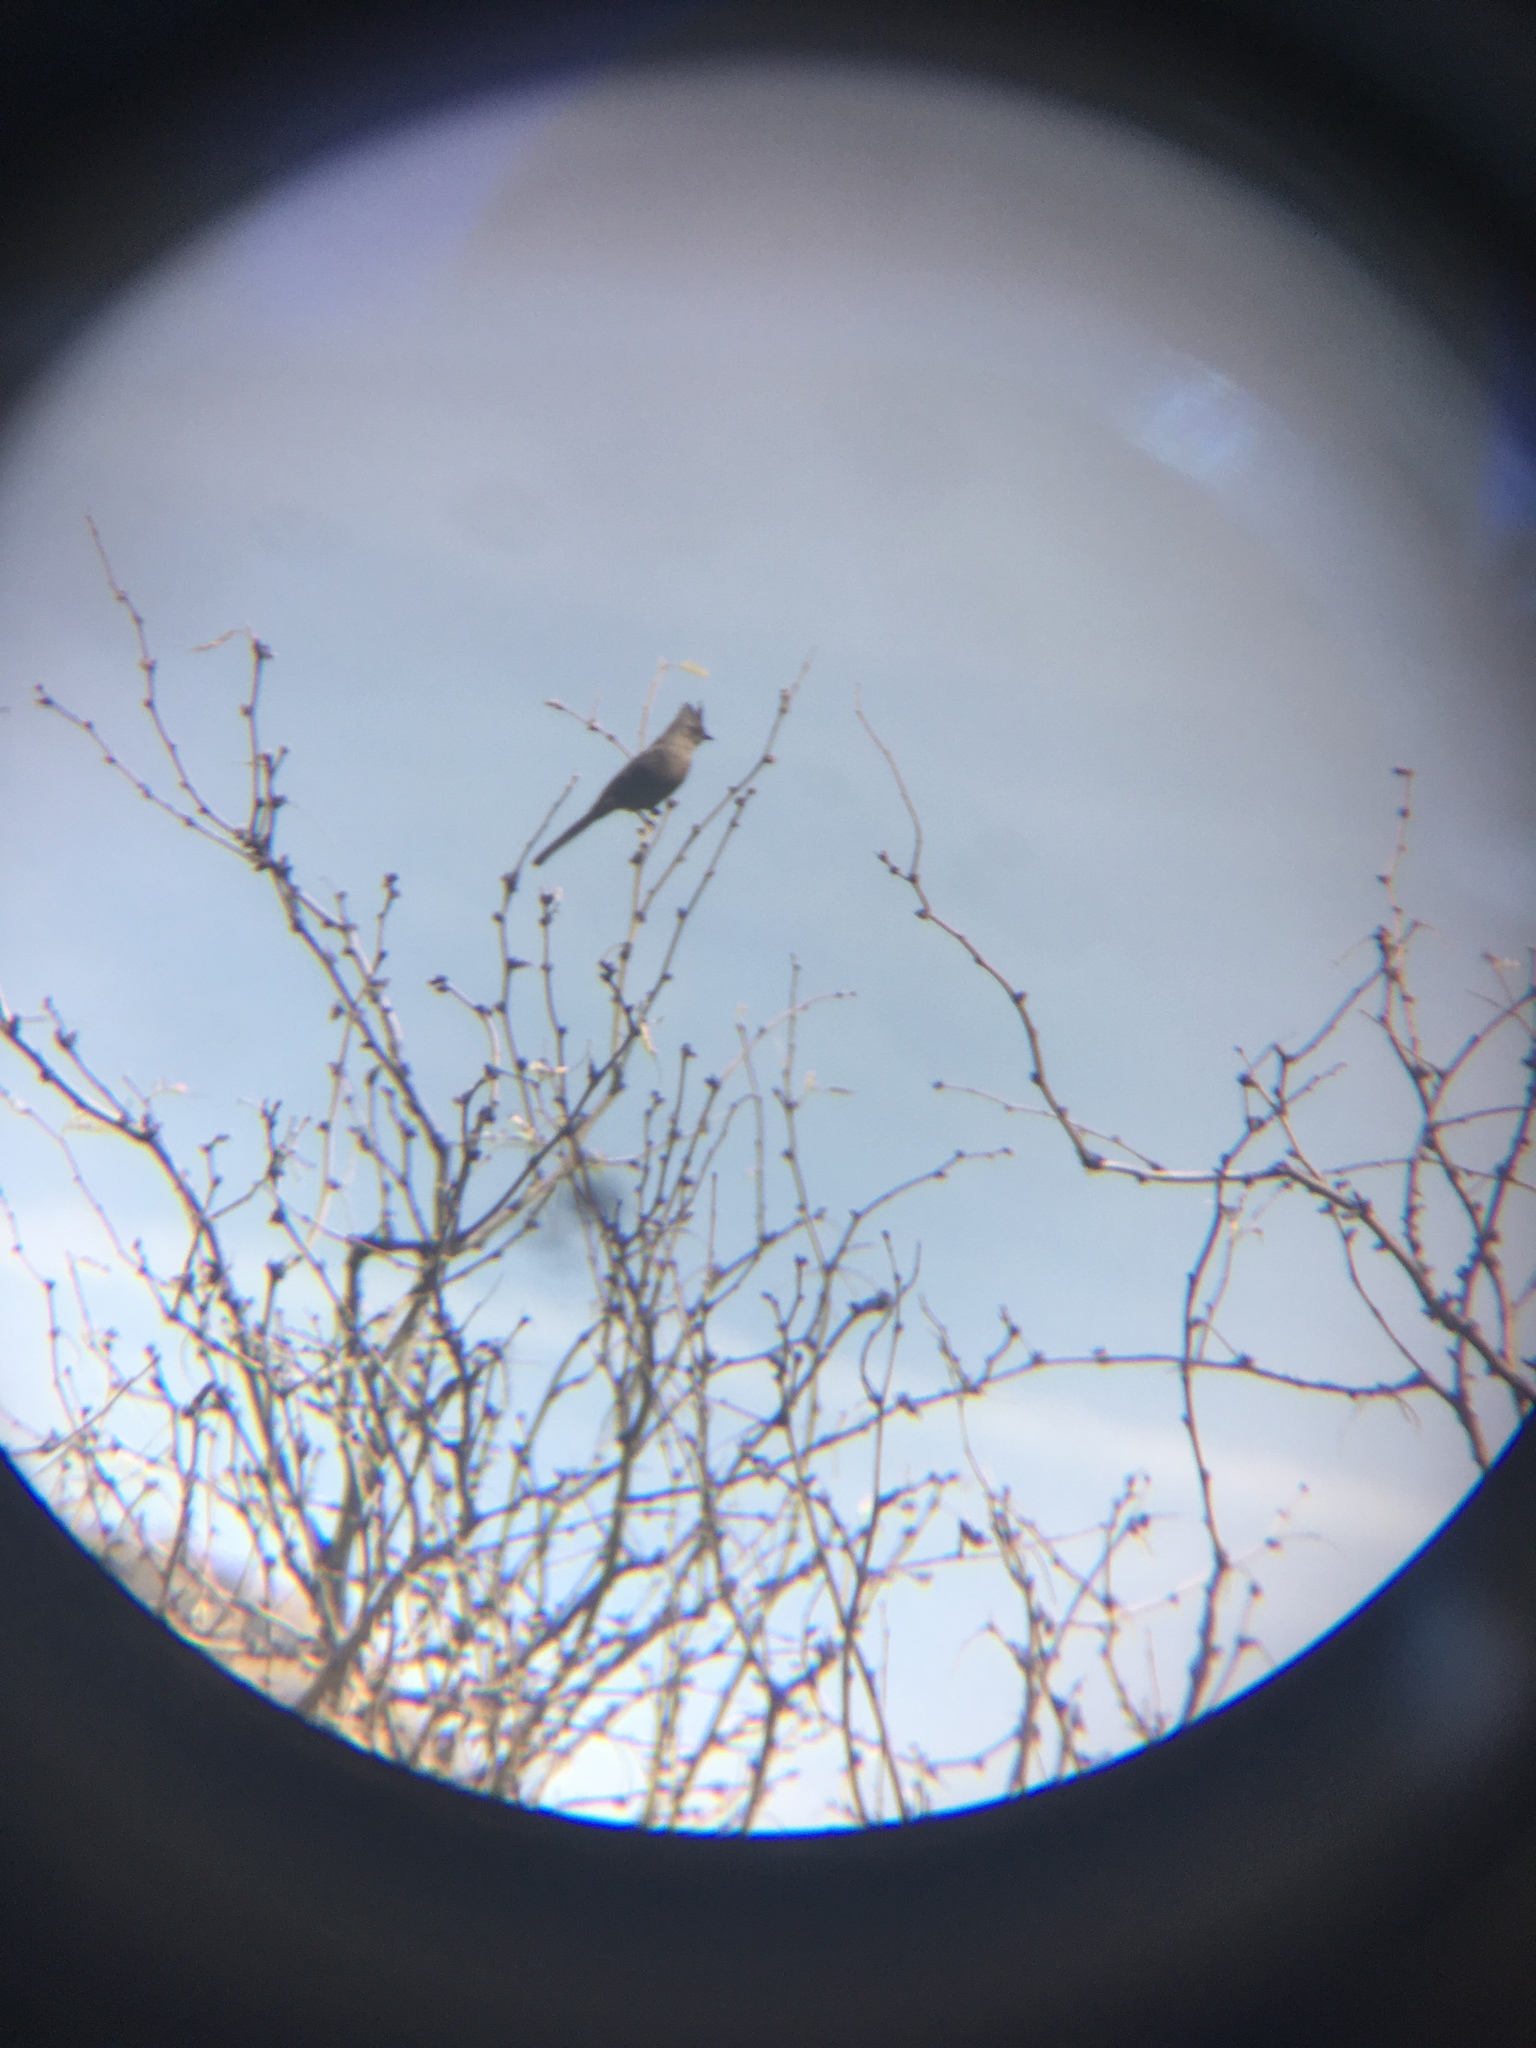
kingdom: Animalia
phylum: Chordata
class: Aves
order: Passeriformes
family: Ptilogonatidae
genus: Phainopepla
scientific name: Phainopepla nitens
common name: Phainopepla
